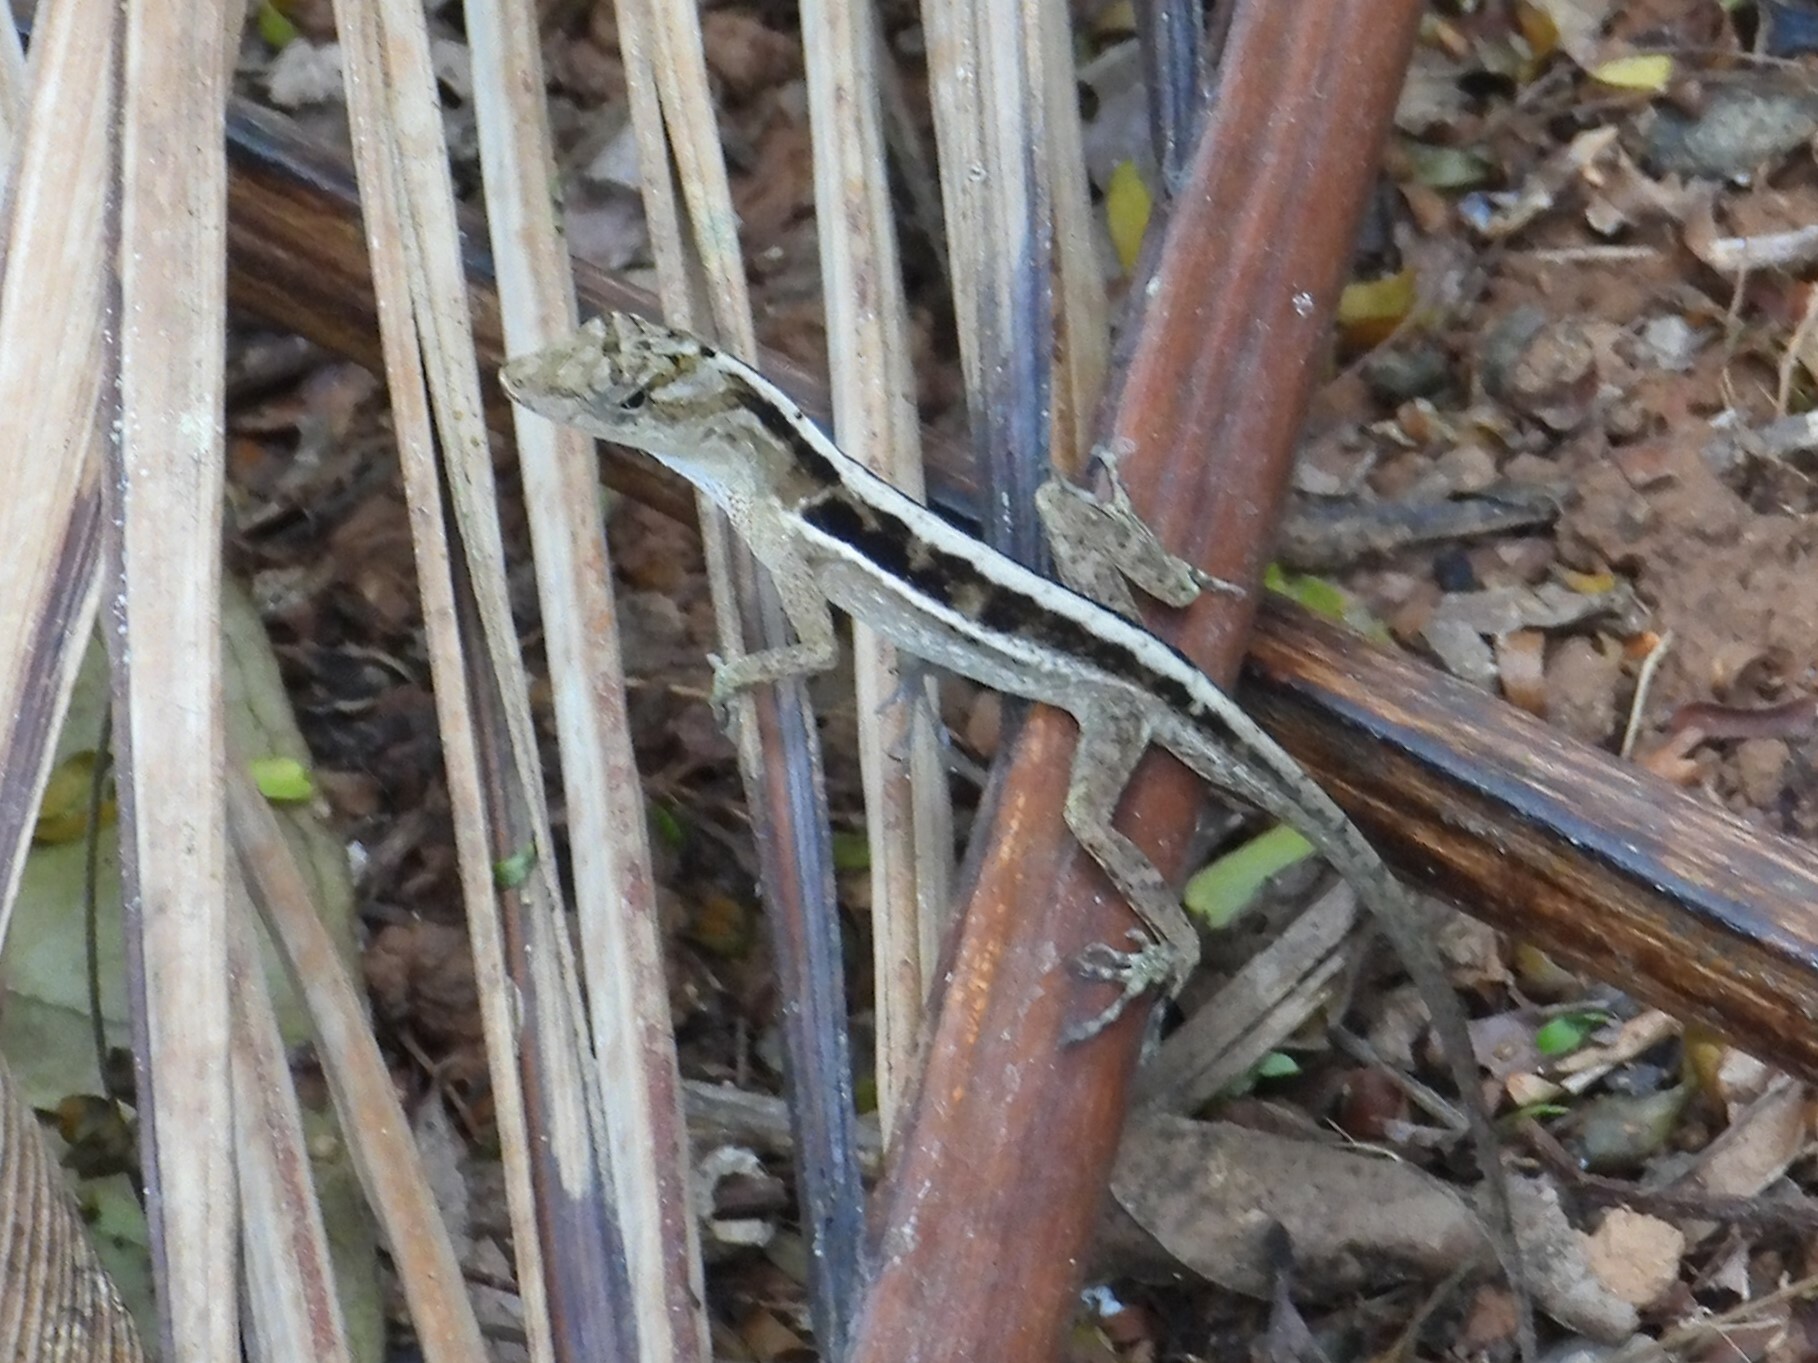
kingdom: Animalia
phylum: Chordata
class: Squamata
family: Dactyloidae
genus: Anolis
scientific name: Anolis cupreus
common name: Copper anole
